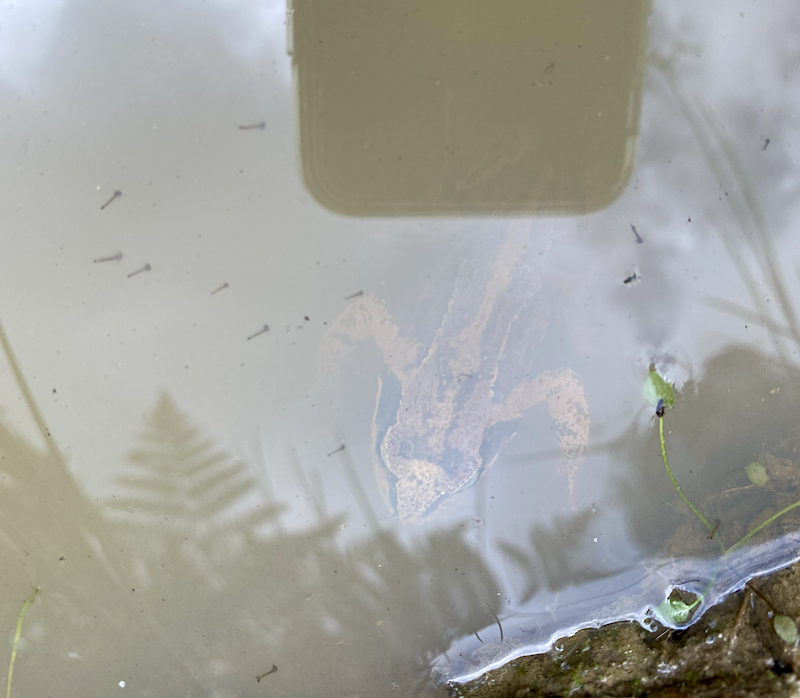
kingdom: Animalia
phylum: Chordata
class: Amphibia
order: Anura
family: Ranidae
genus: Rana
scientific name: Rana temporaria
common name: Common frog
